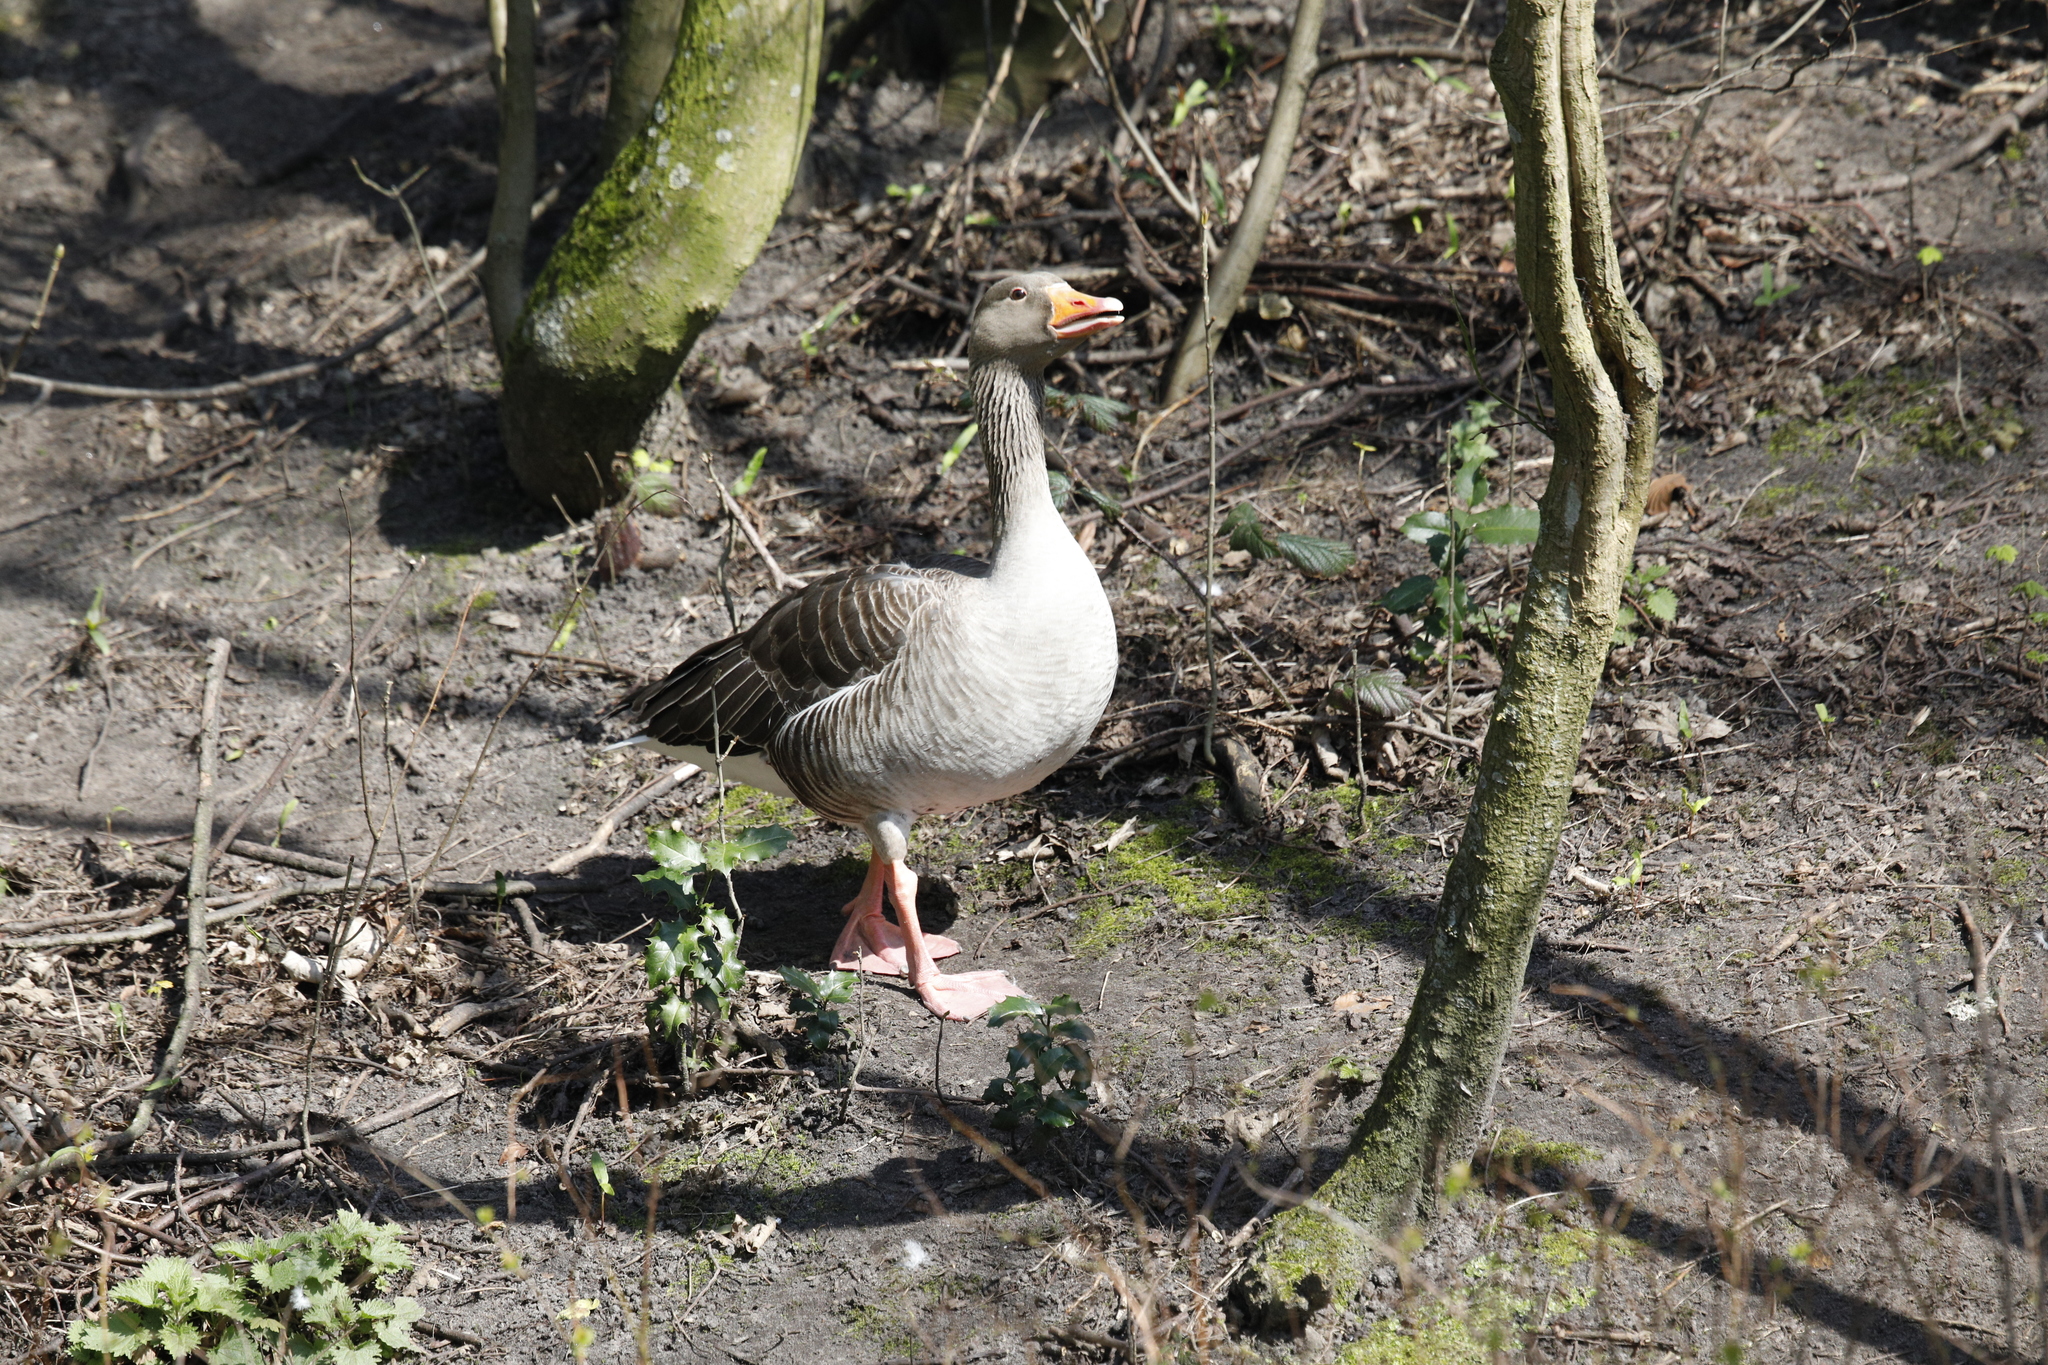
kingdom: Animalia
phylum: Chordata
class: Aves
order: Anseriformes
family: Anatidae
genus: Anser
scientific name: Anser anser
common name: Greylag goose
